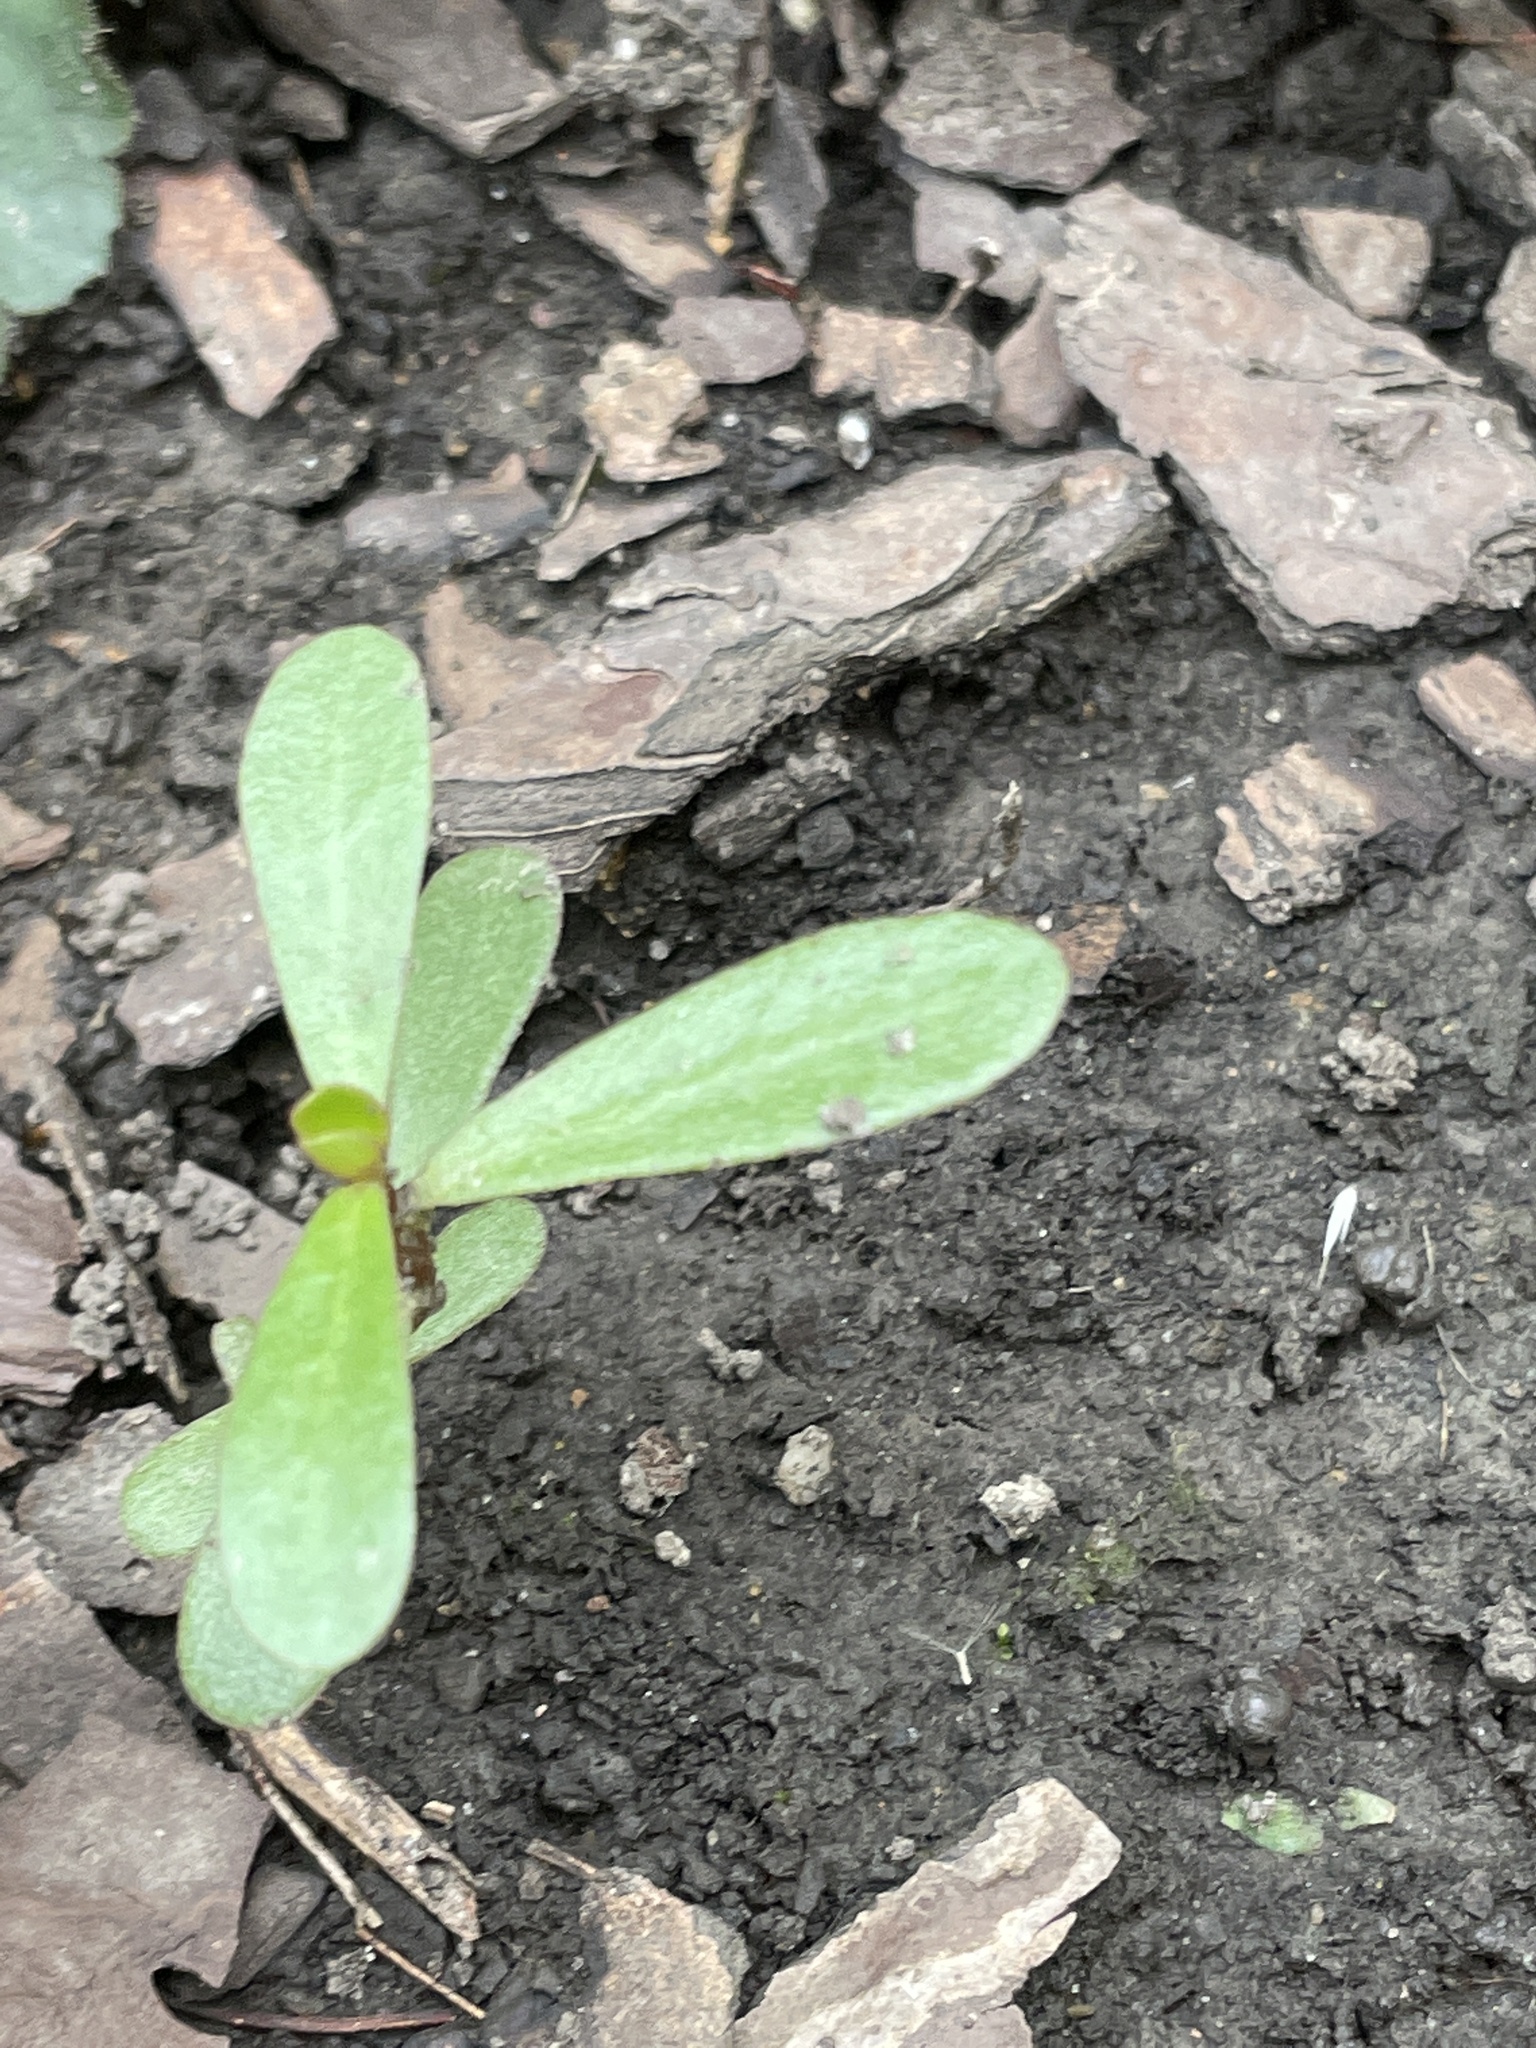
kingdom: Plantae
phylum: Tracheophyta
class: Magnoliopsida
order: Caryophyllales
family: Portulacaceae
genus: Portulaca
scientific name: Portulaca oleracea
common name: Common purslane
